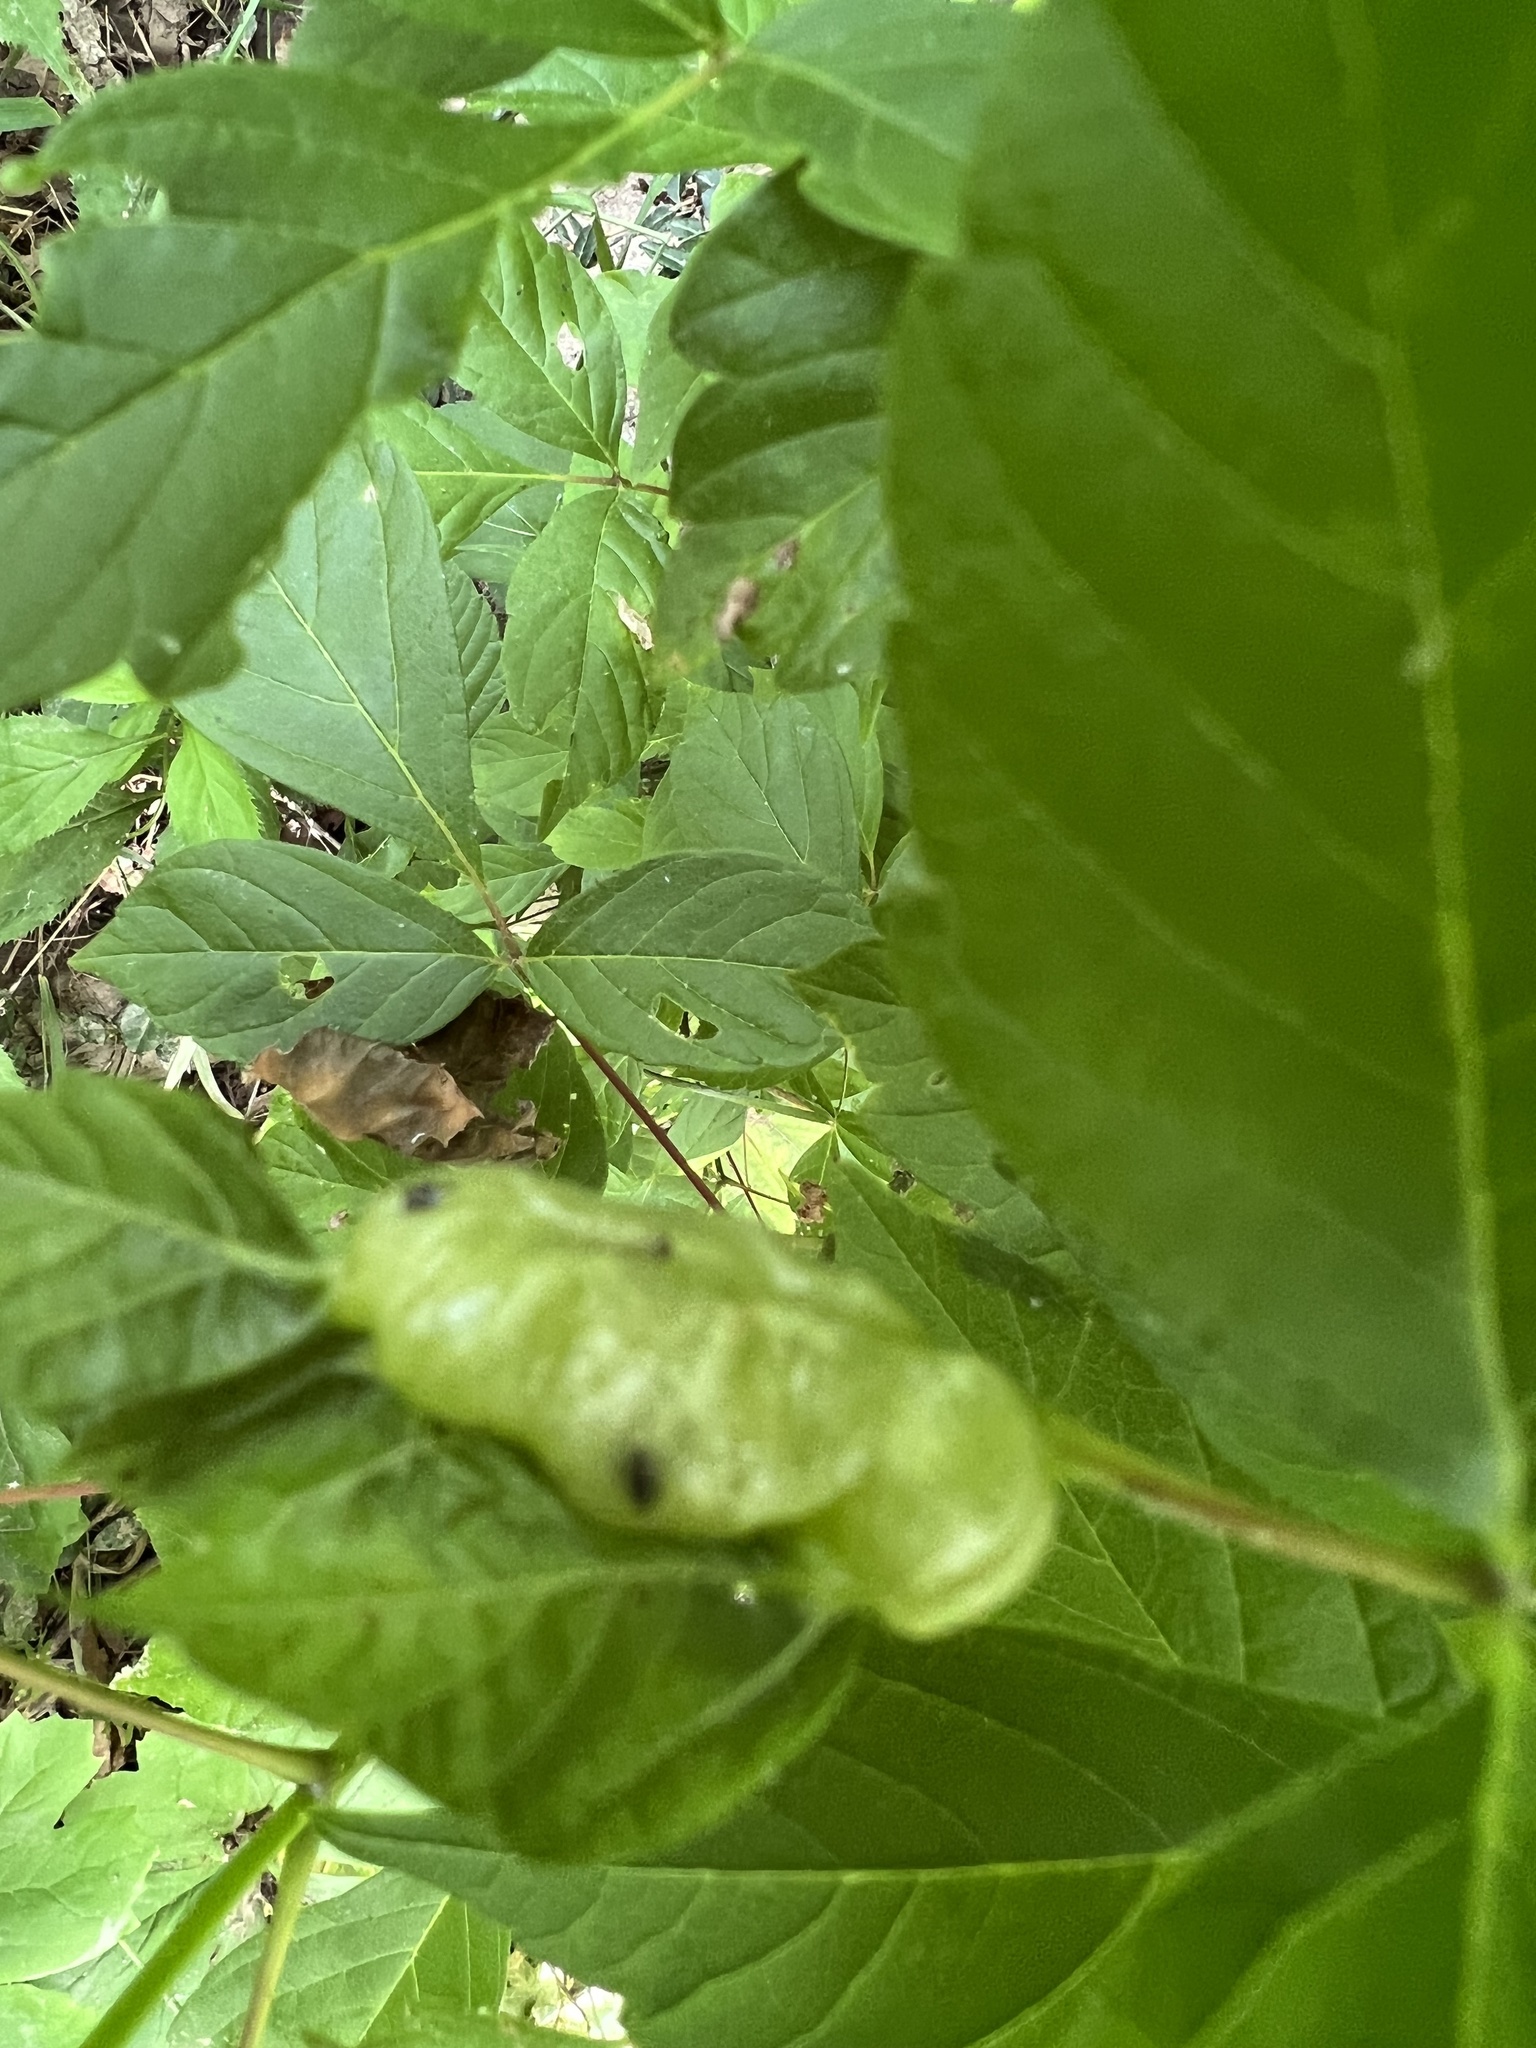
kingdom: Animalia
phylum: Arthropoda
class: Insecta
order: Diptera
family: Cecidomyiidae
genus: Contarinia
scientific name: Contarinia negundinis
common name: Boxelder budgall midge
